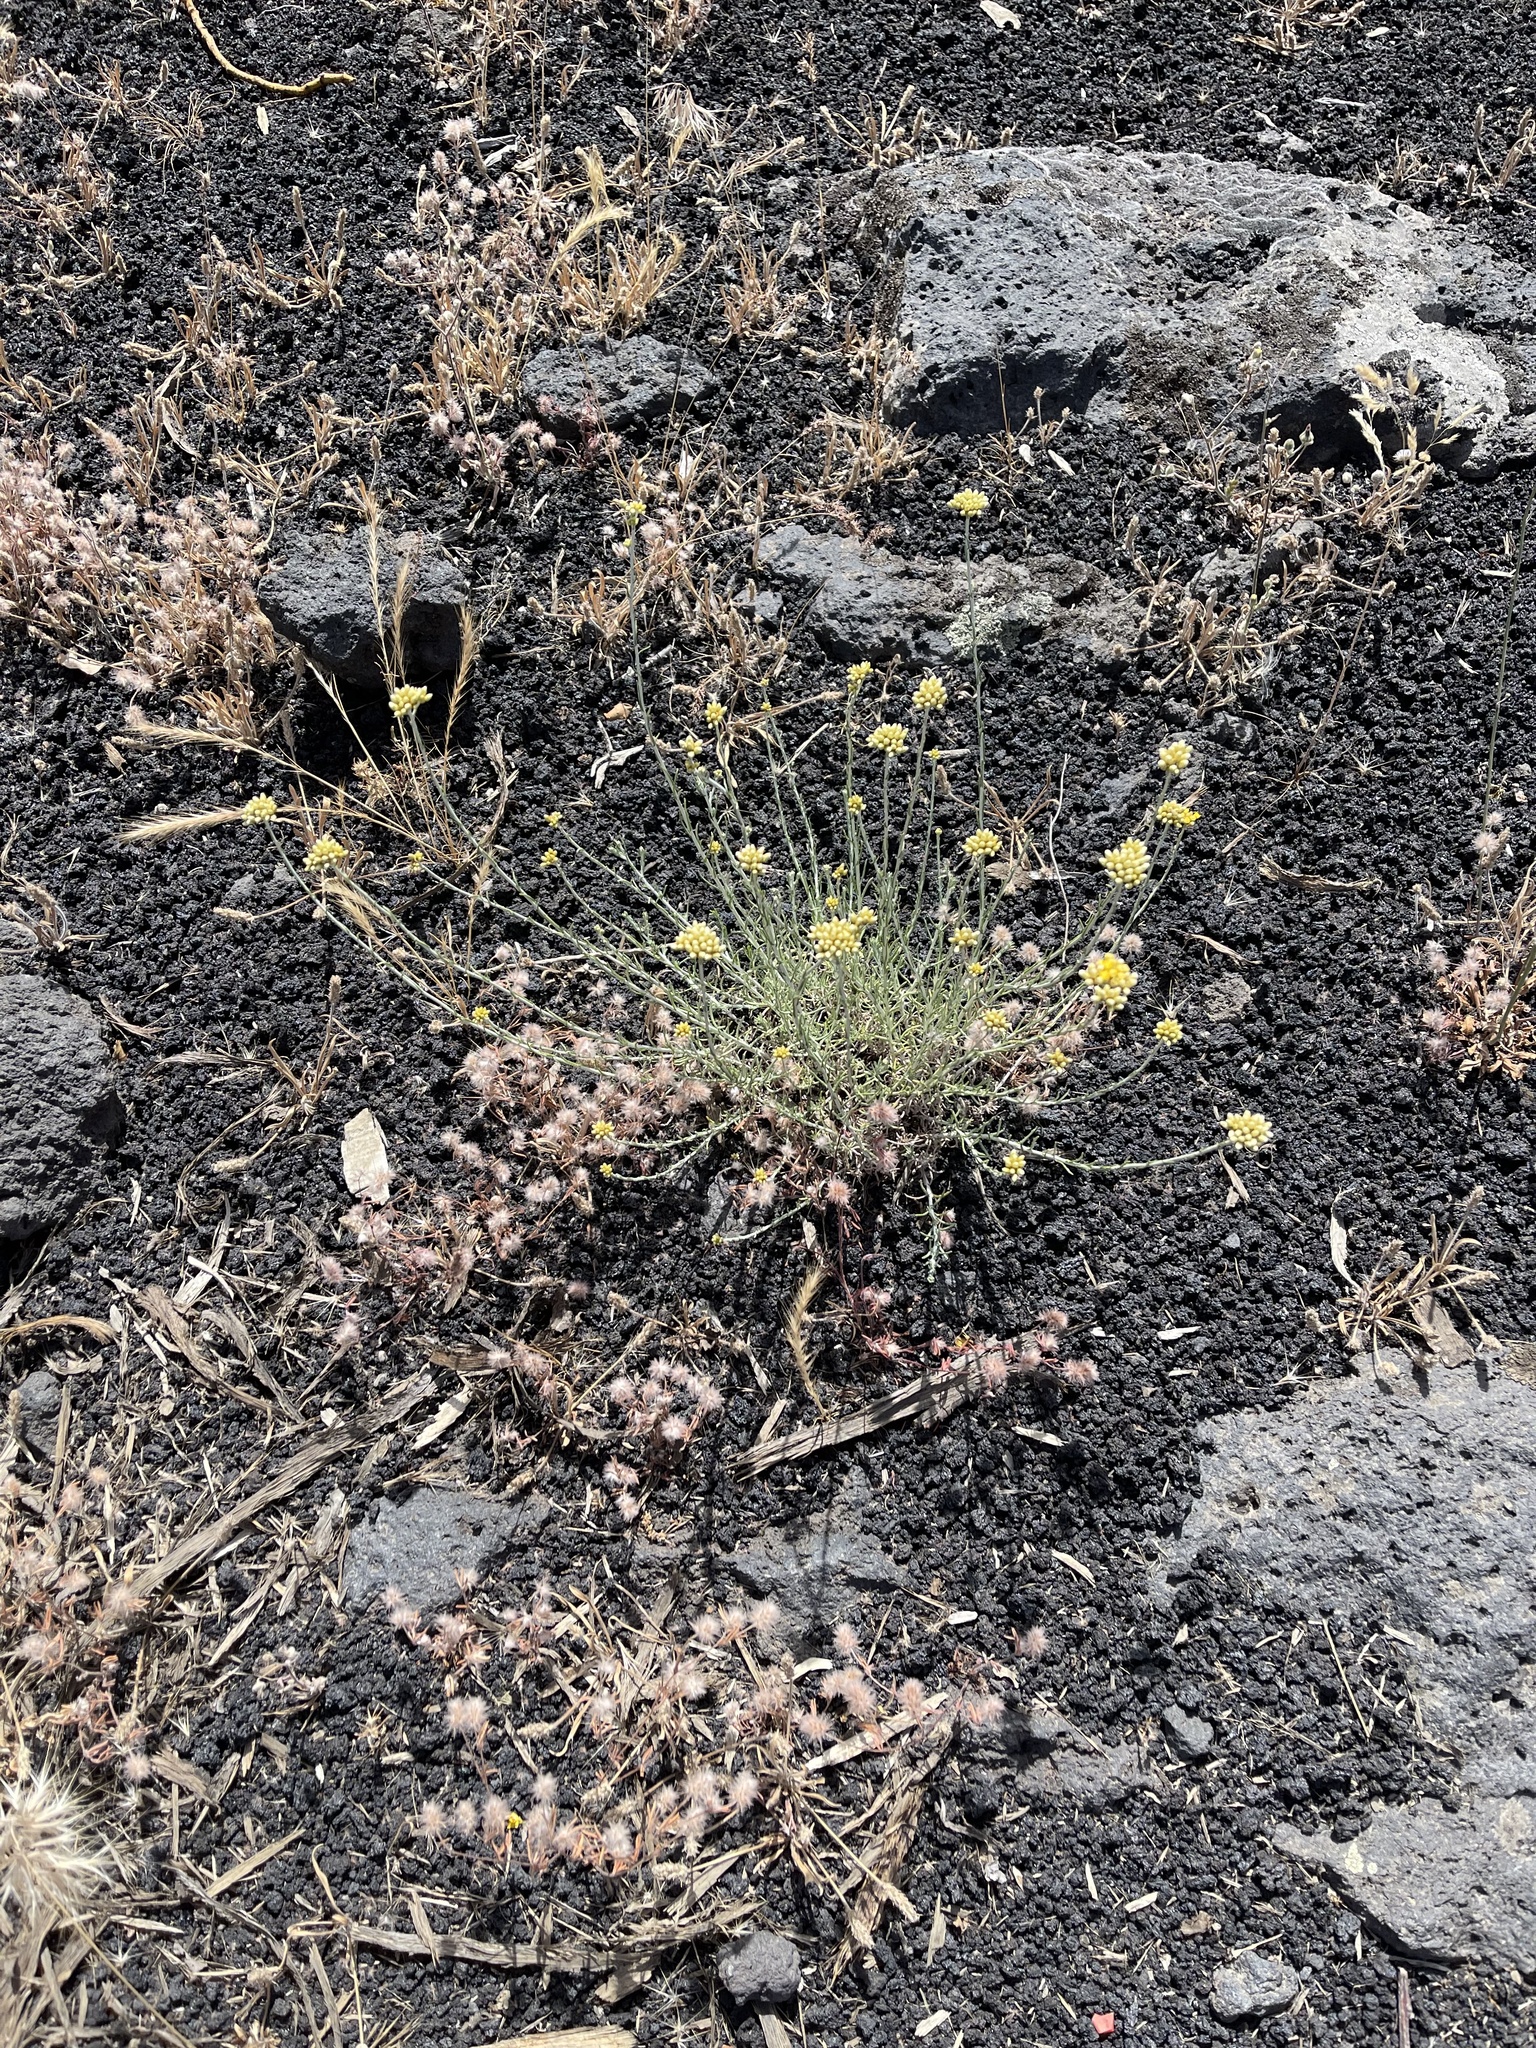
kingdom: Plantae
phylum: Tracheophyta
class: Magnoliopsida
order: Asterales
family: Asteraceae
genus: Helichrysum
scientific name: Helichrysum italicum
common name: Curryplant
